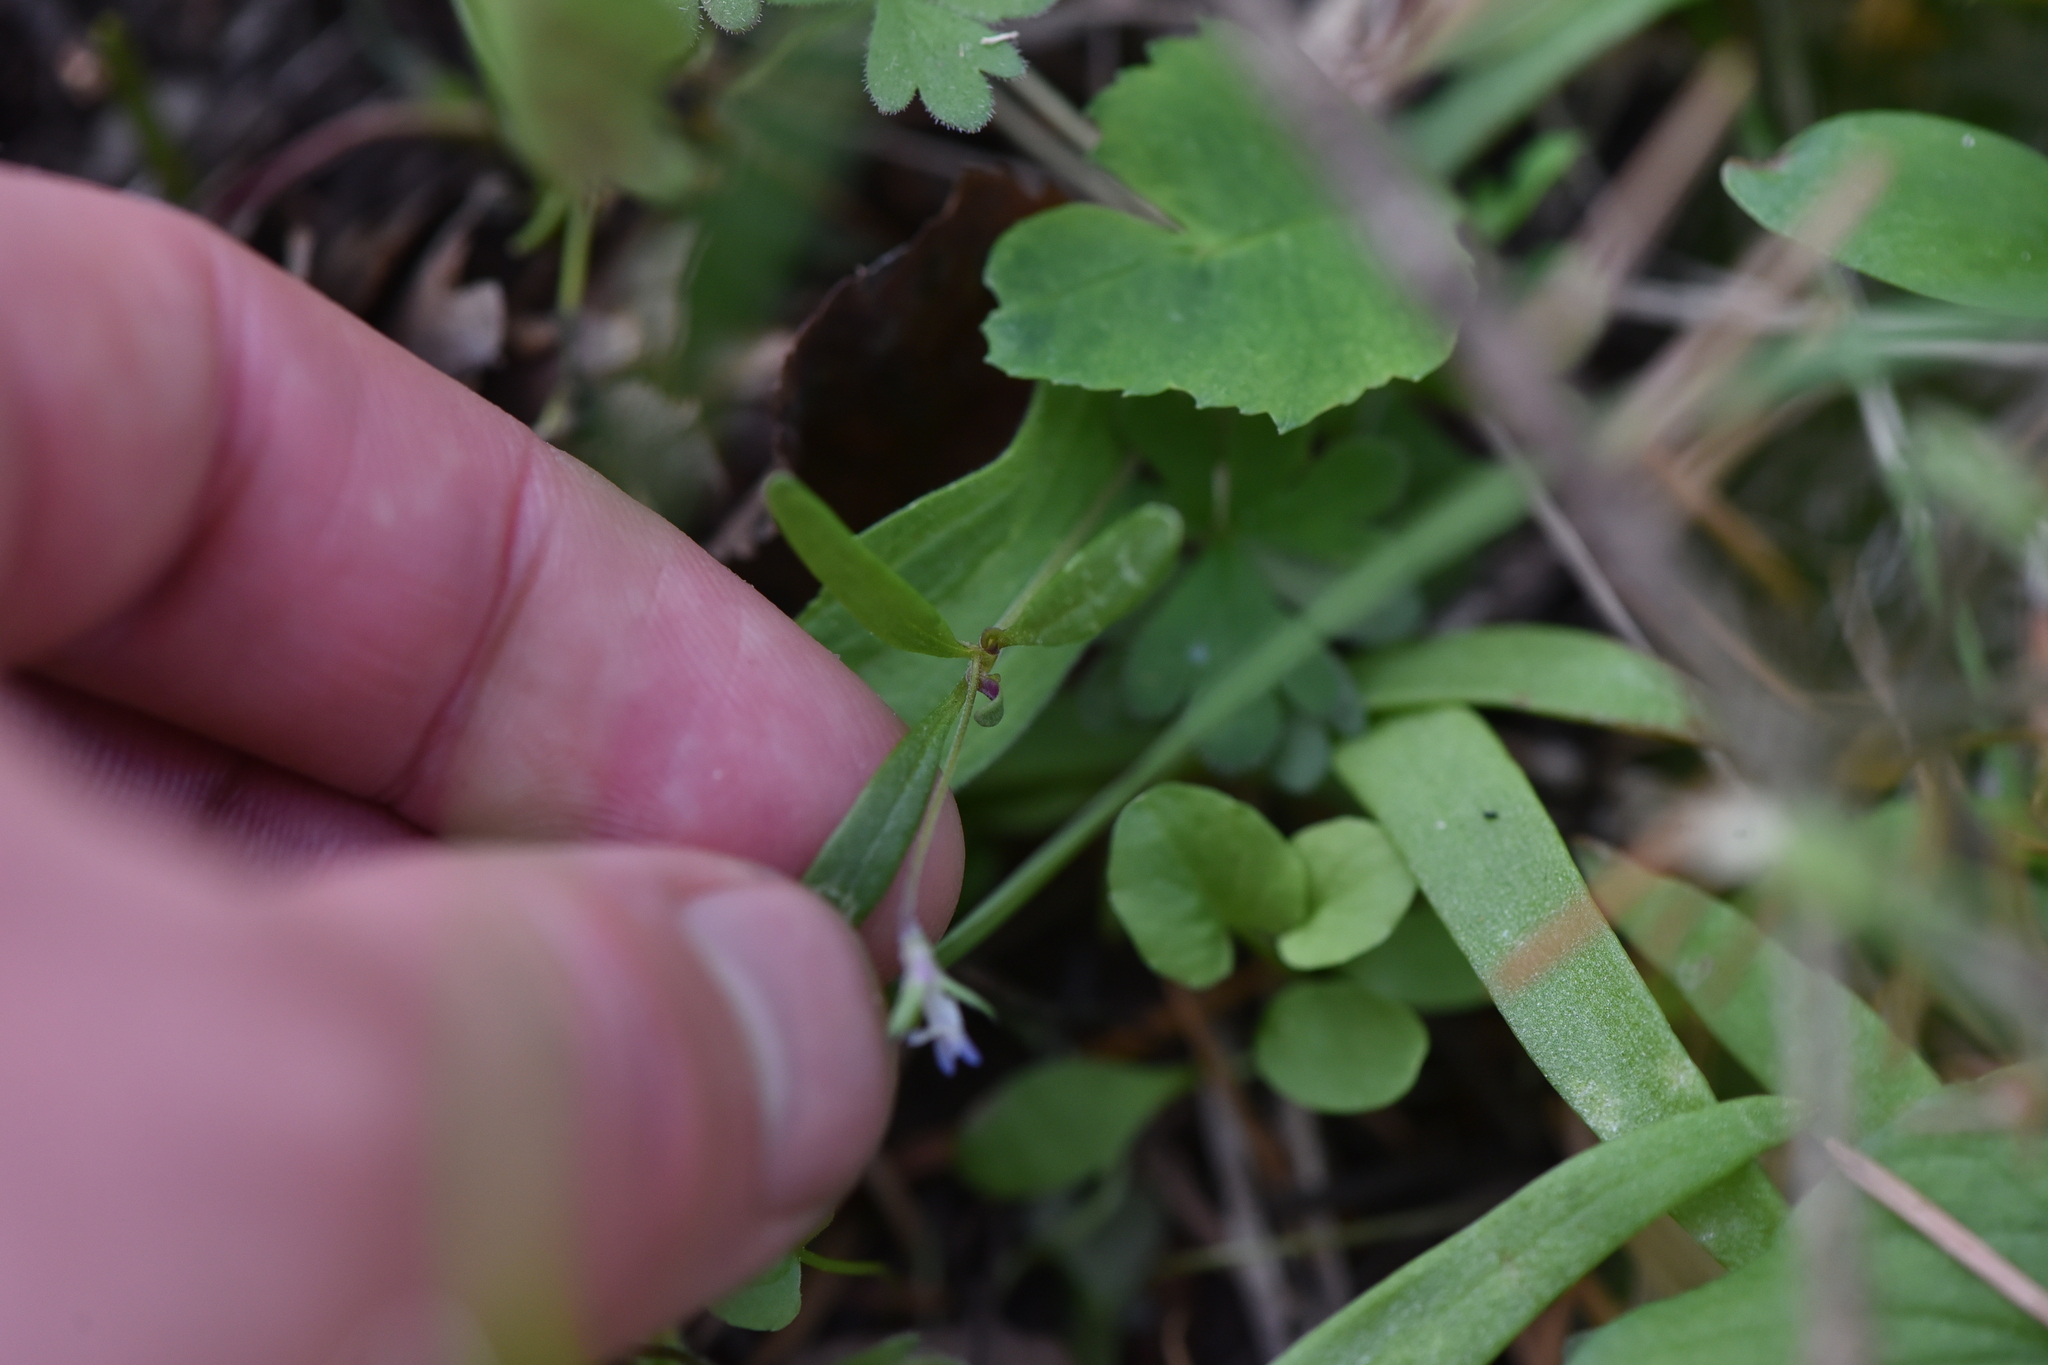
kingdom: Plantae
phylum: Tracheophyta
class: Magnoliopsida
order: Lamiales
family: Plantaginaceae
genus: Collinsia
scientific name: Collinsia parviflora
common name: Blue-lips
